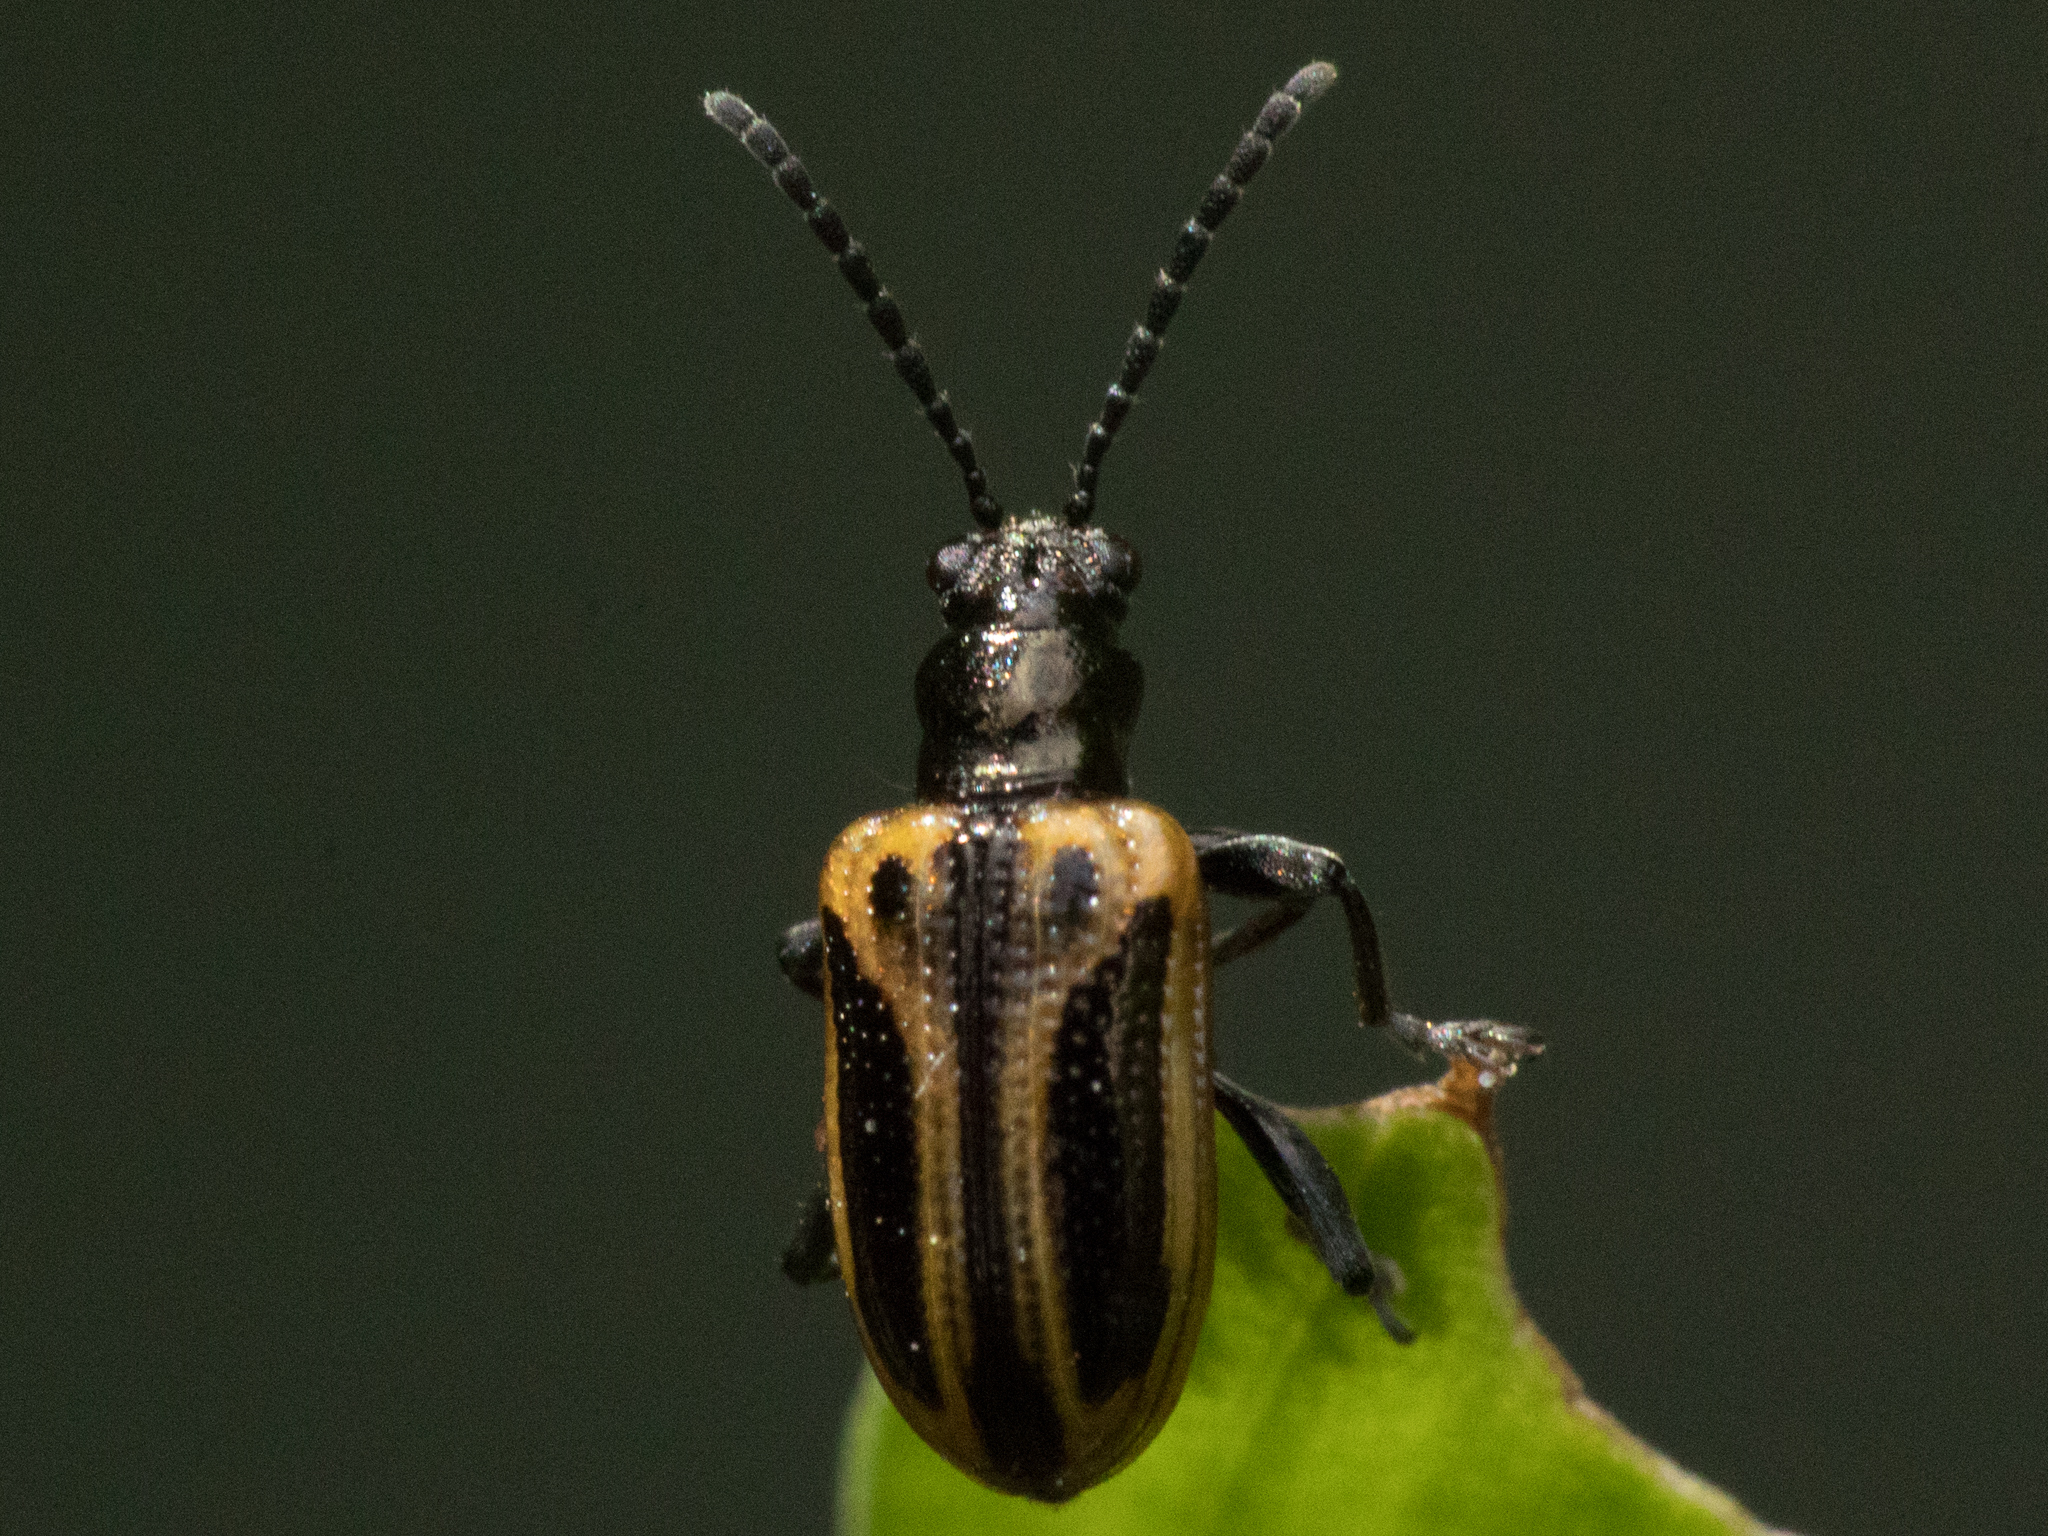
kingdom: Animalia
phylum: Arthropoda
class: Insecta
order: Coleoptera
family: Chrysomelidae
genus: Neolema
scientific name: Neolema
